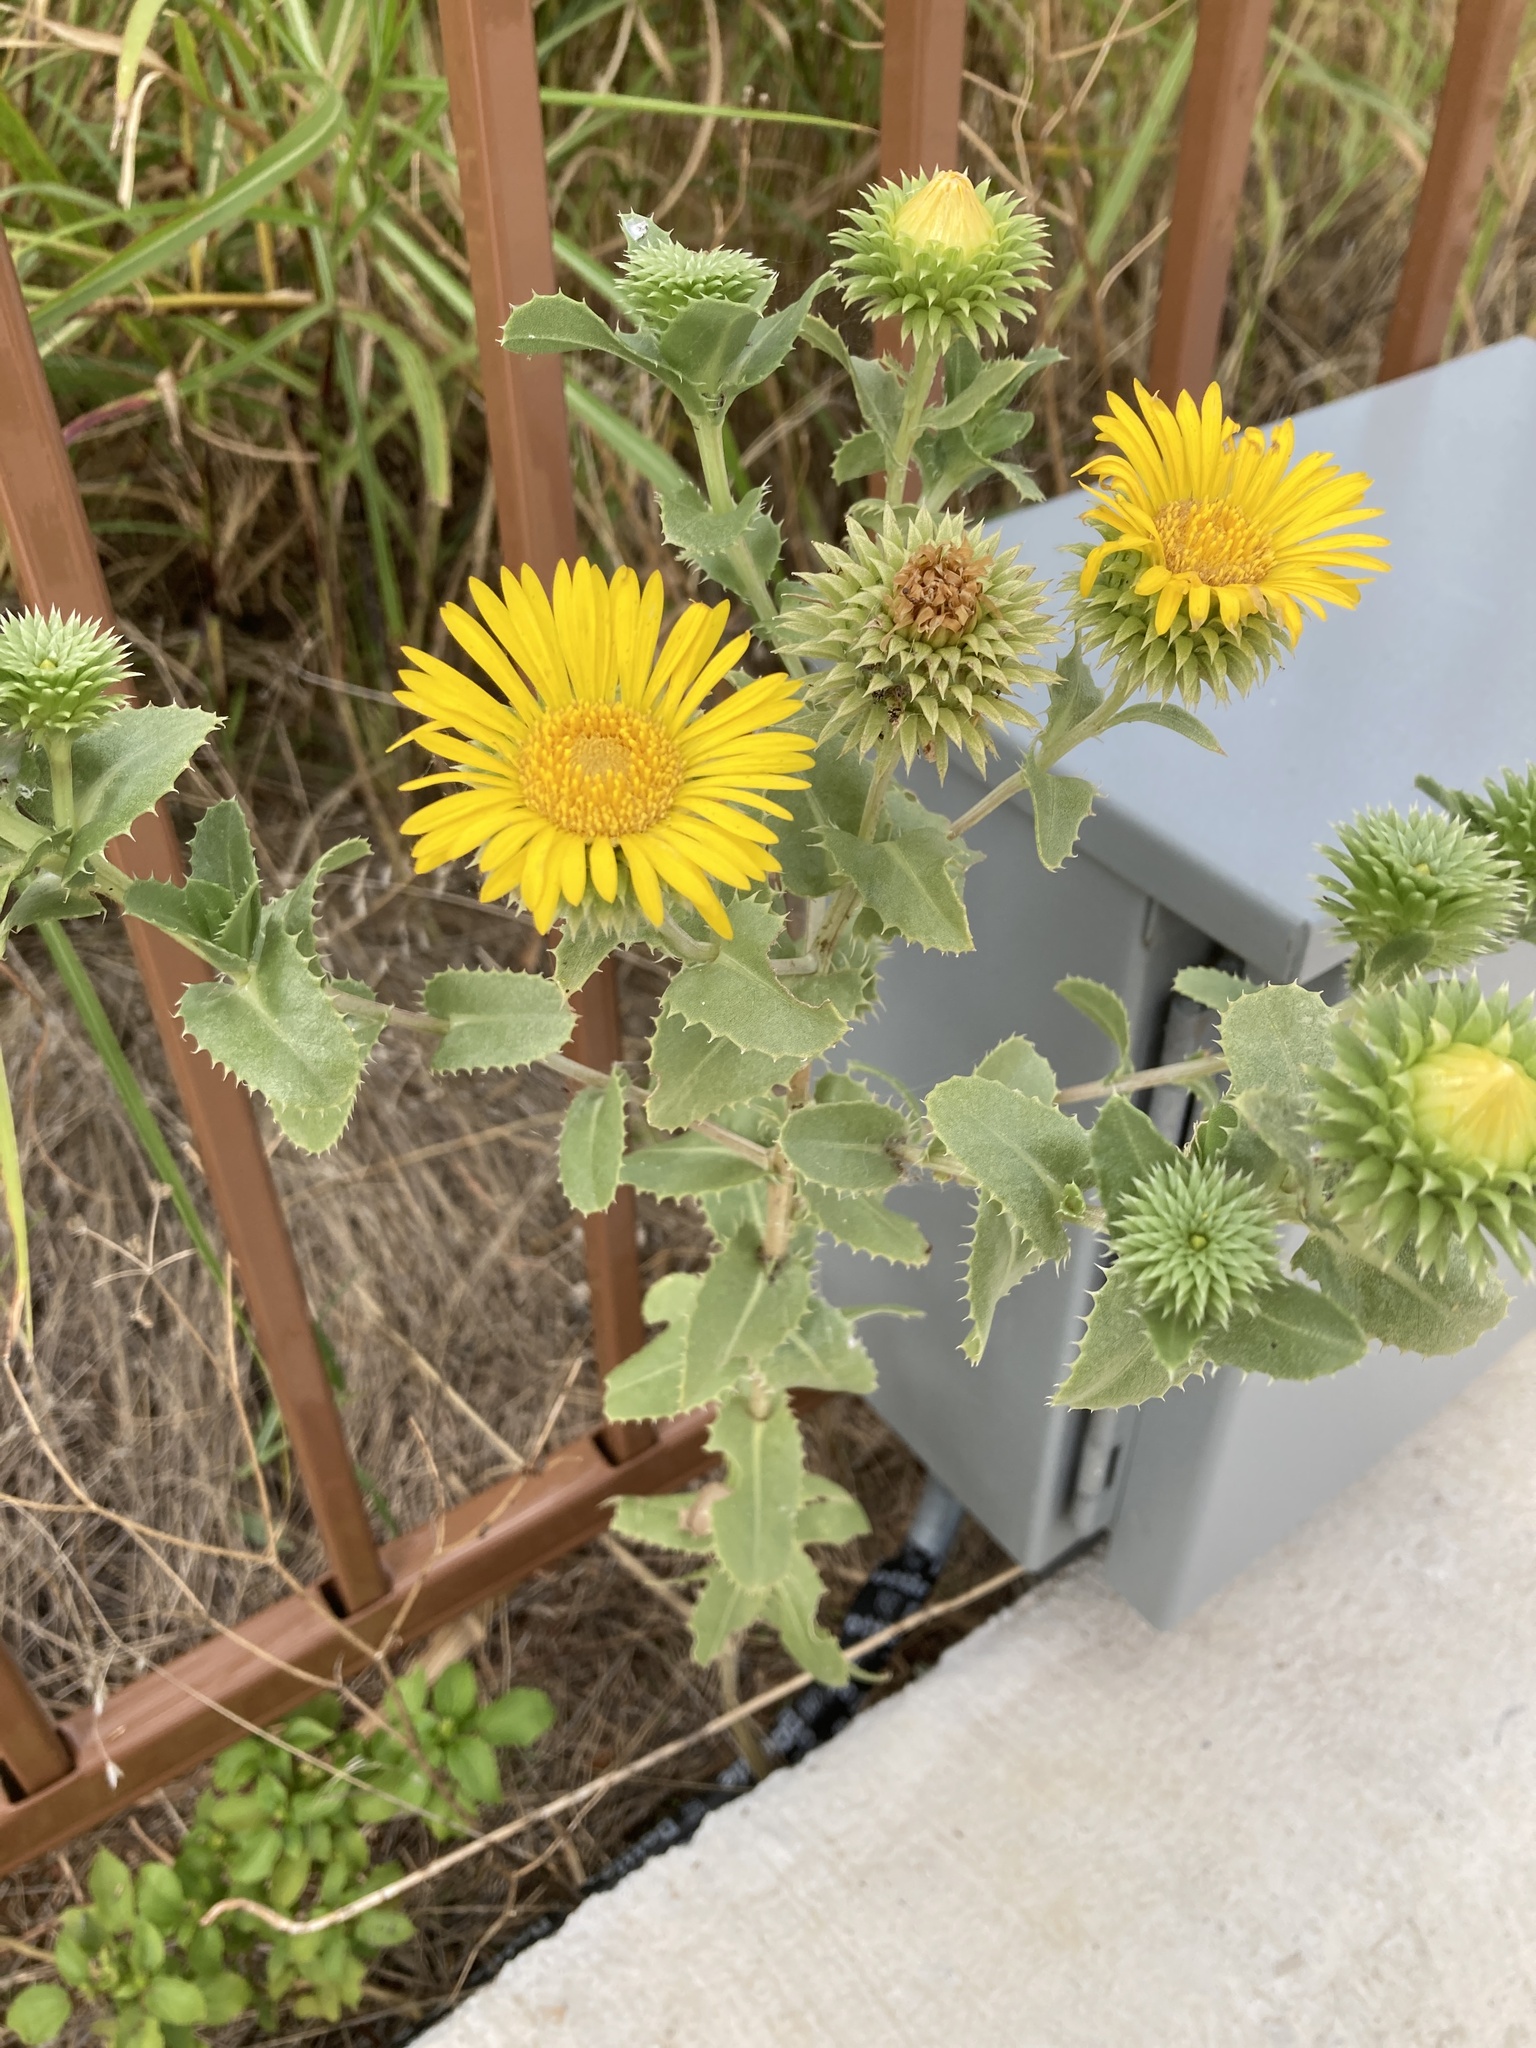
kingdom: Plantae
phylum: Tracheophyta
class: Magnoliopsida
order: Asterales
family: Asteraceae
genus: Grindelia
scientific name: Grindelia ciliata
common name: Goldenweed
